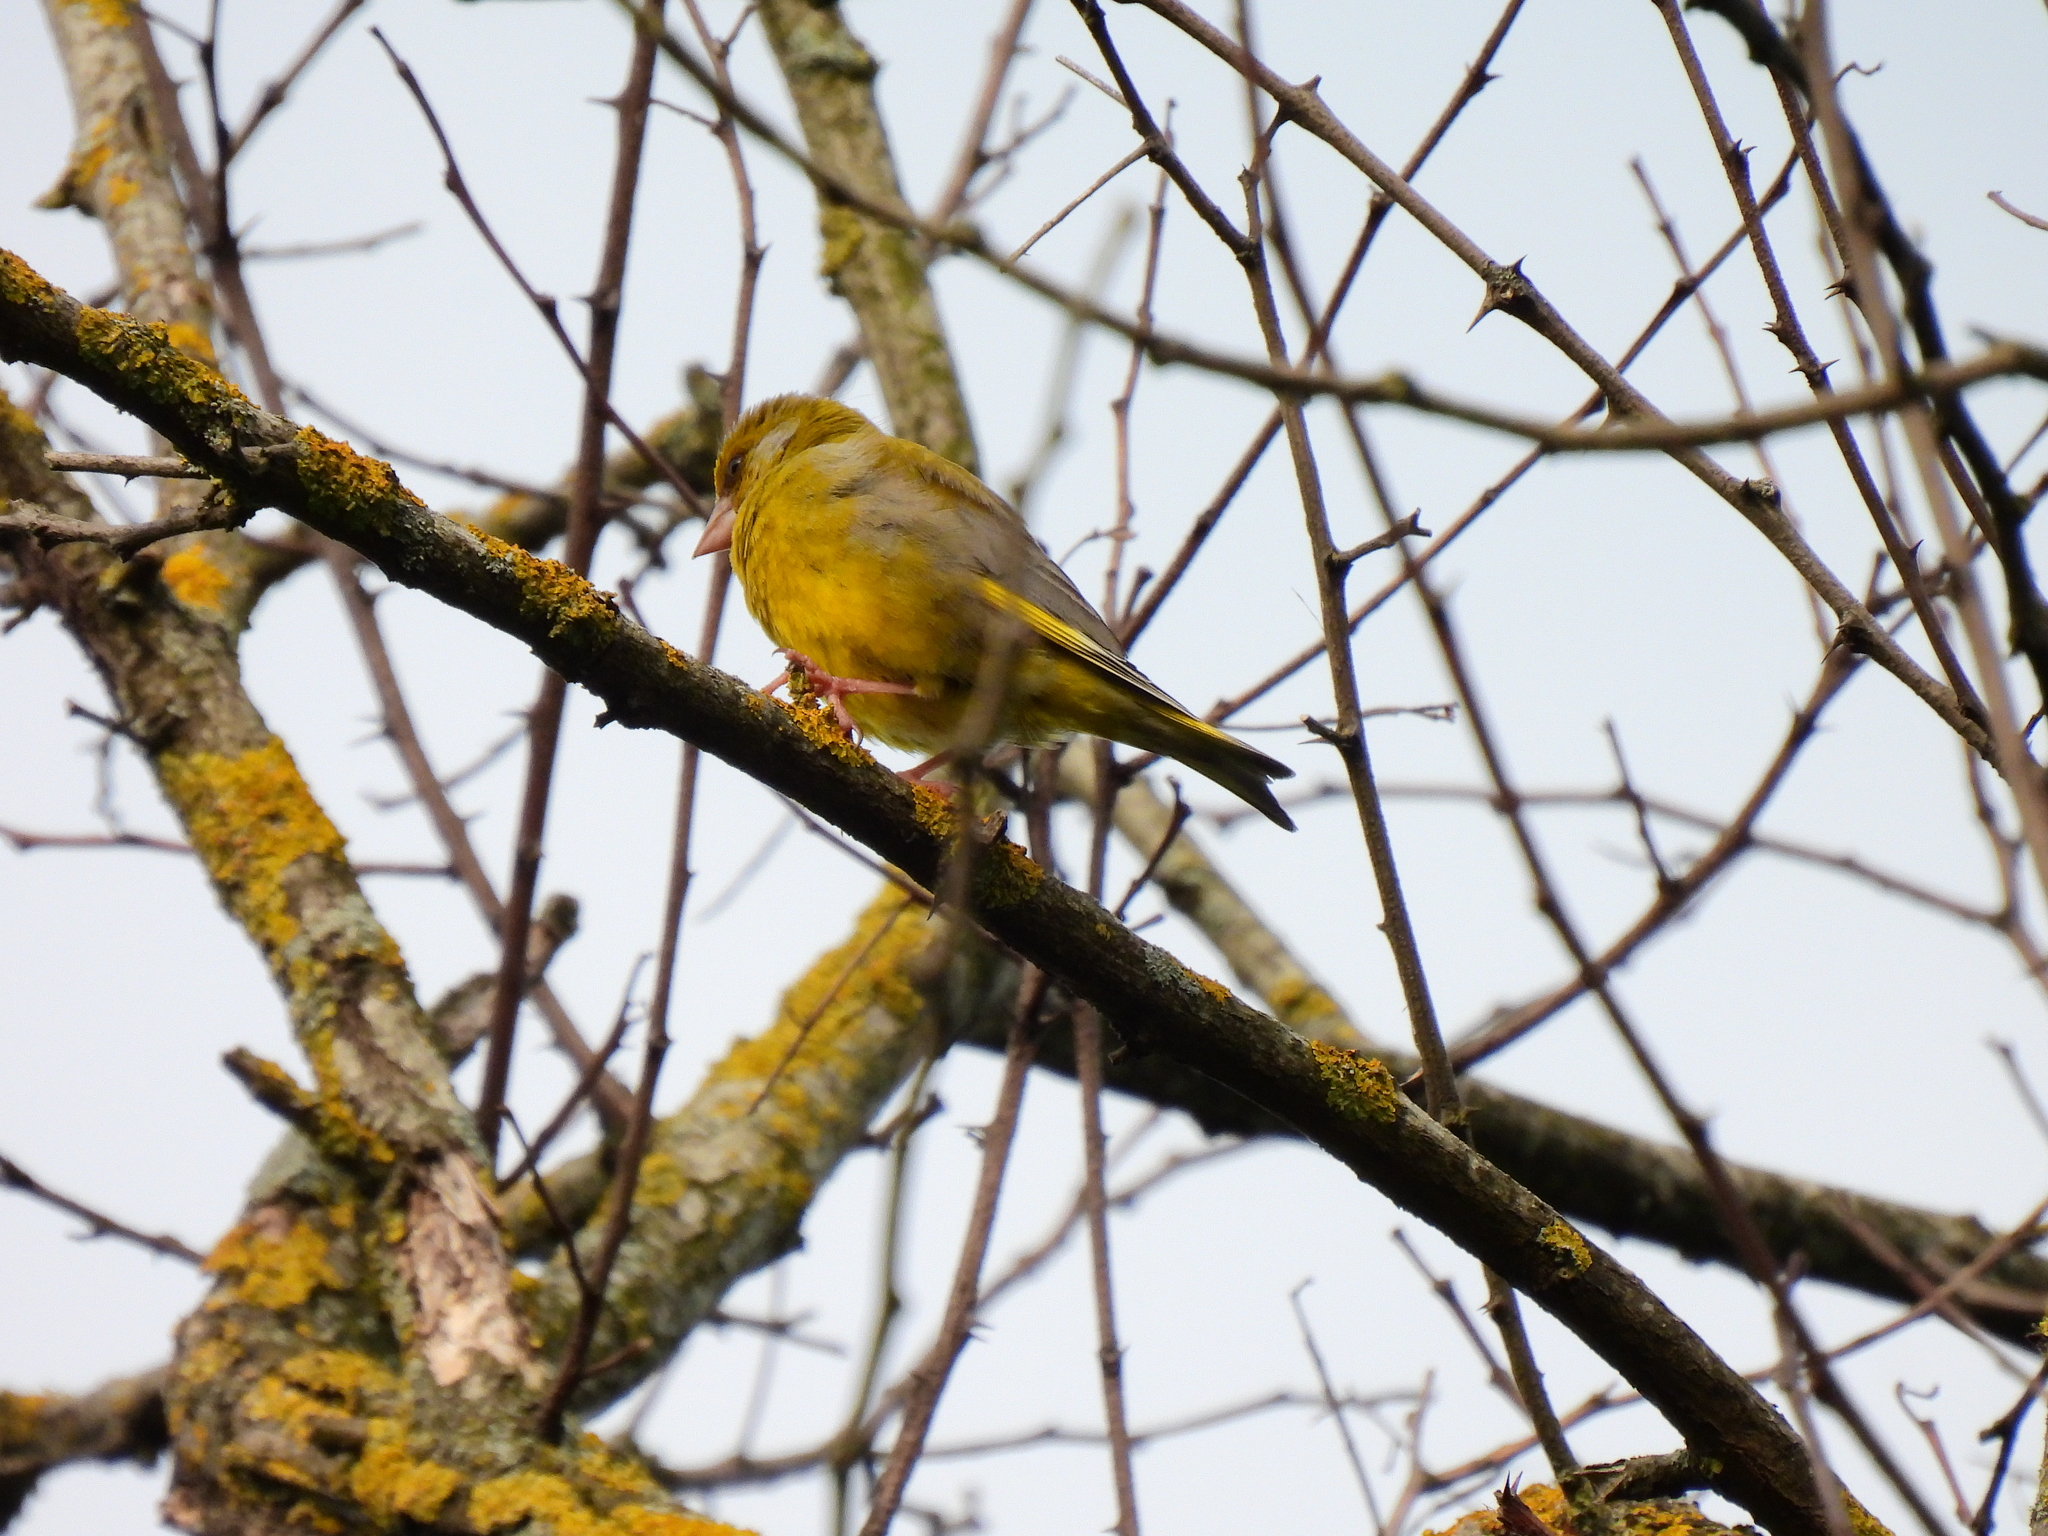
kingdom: Plantae
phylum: Tracheophyta
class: Liliopsida
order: Poales
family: Poaceae
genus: Chloris
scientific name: Chloris chloris
